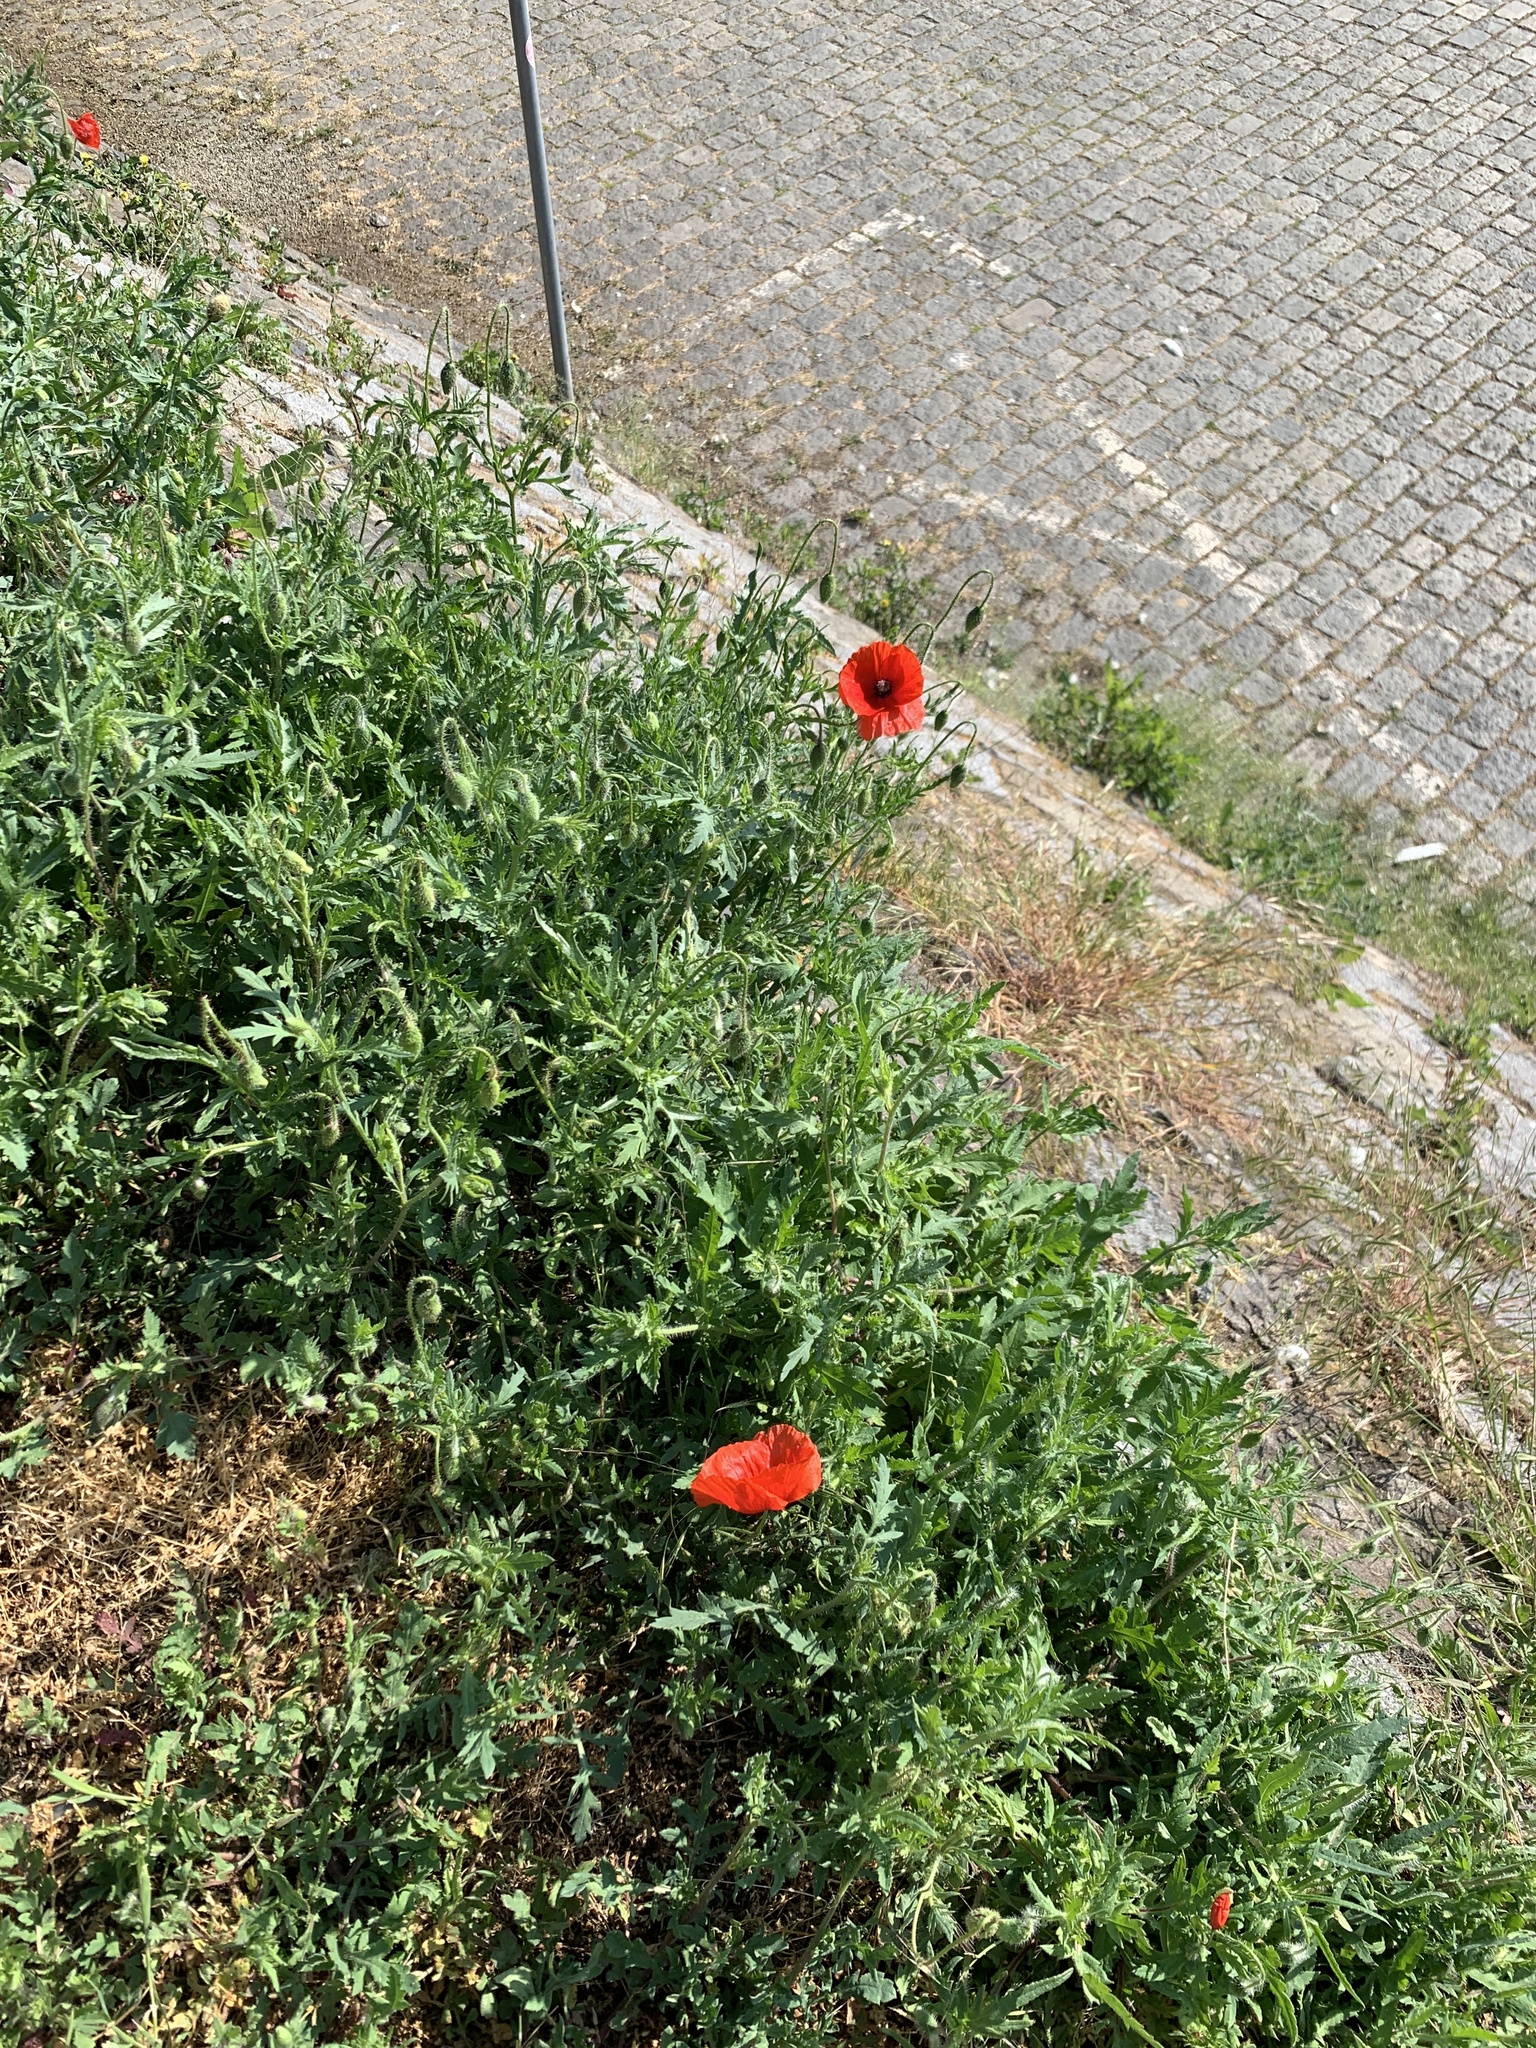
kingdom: Plantae
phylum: Tracheophyta
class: Magnoliopsida
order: Ranunculales
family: Papaveraceae
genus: Papaver
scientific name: Papaver rhoeas
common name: Corn poppy
